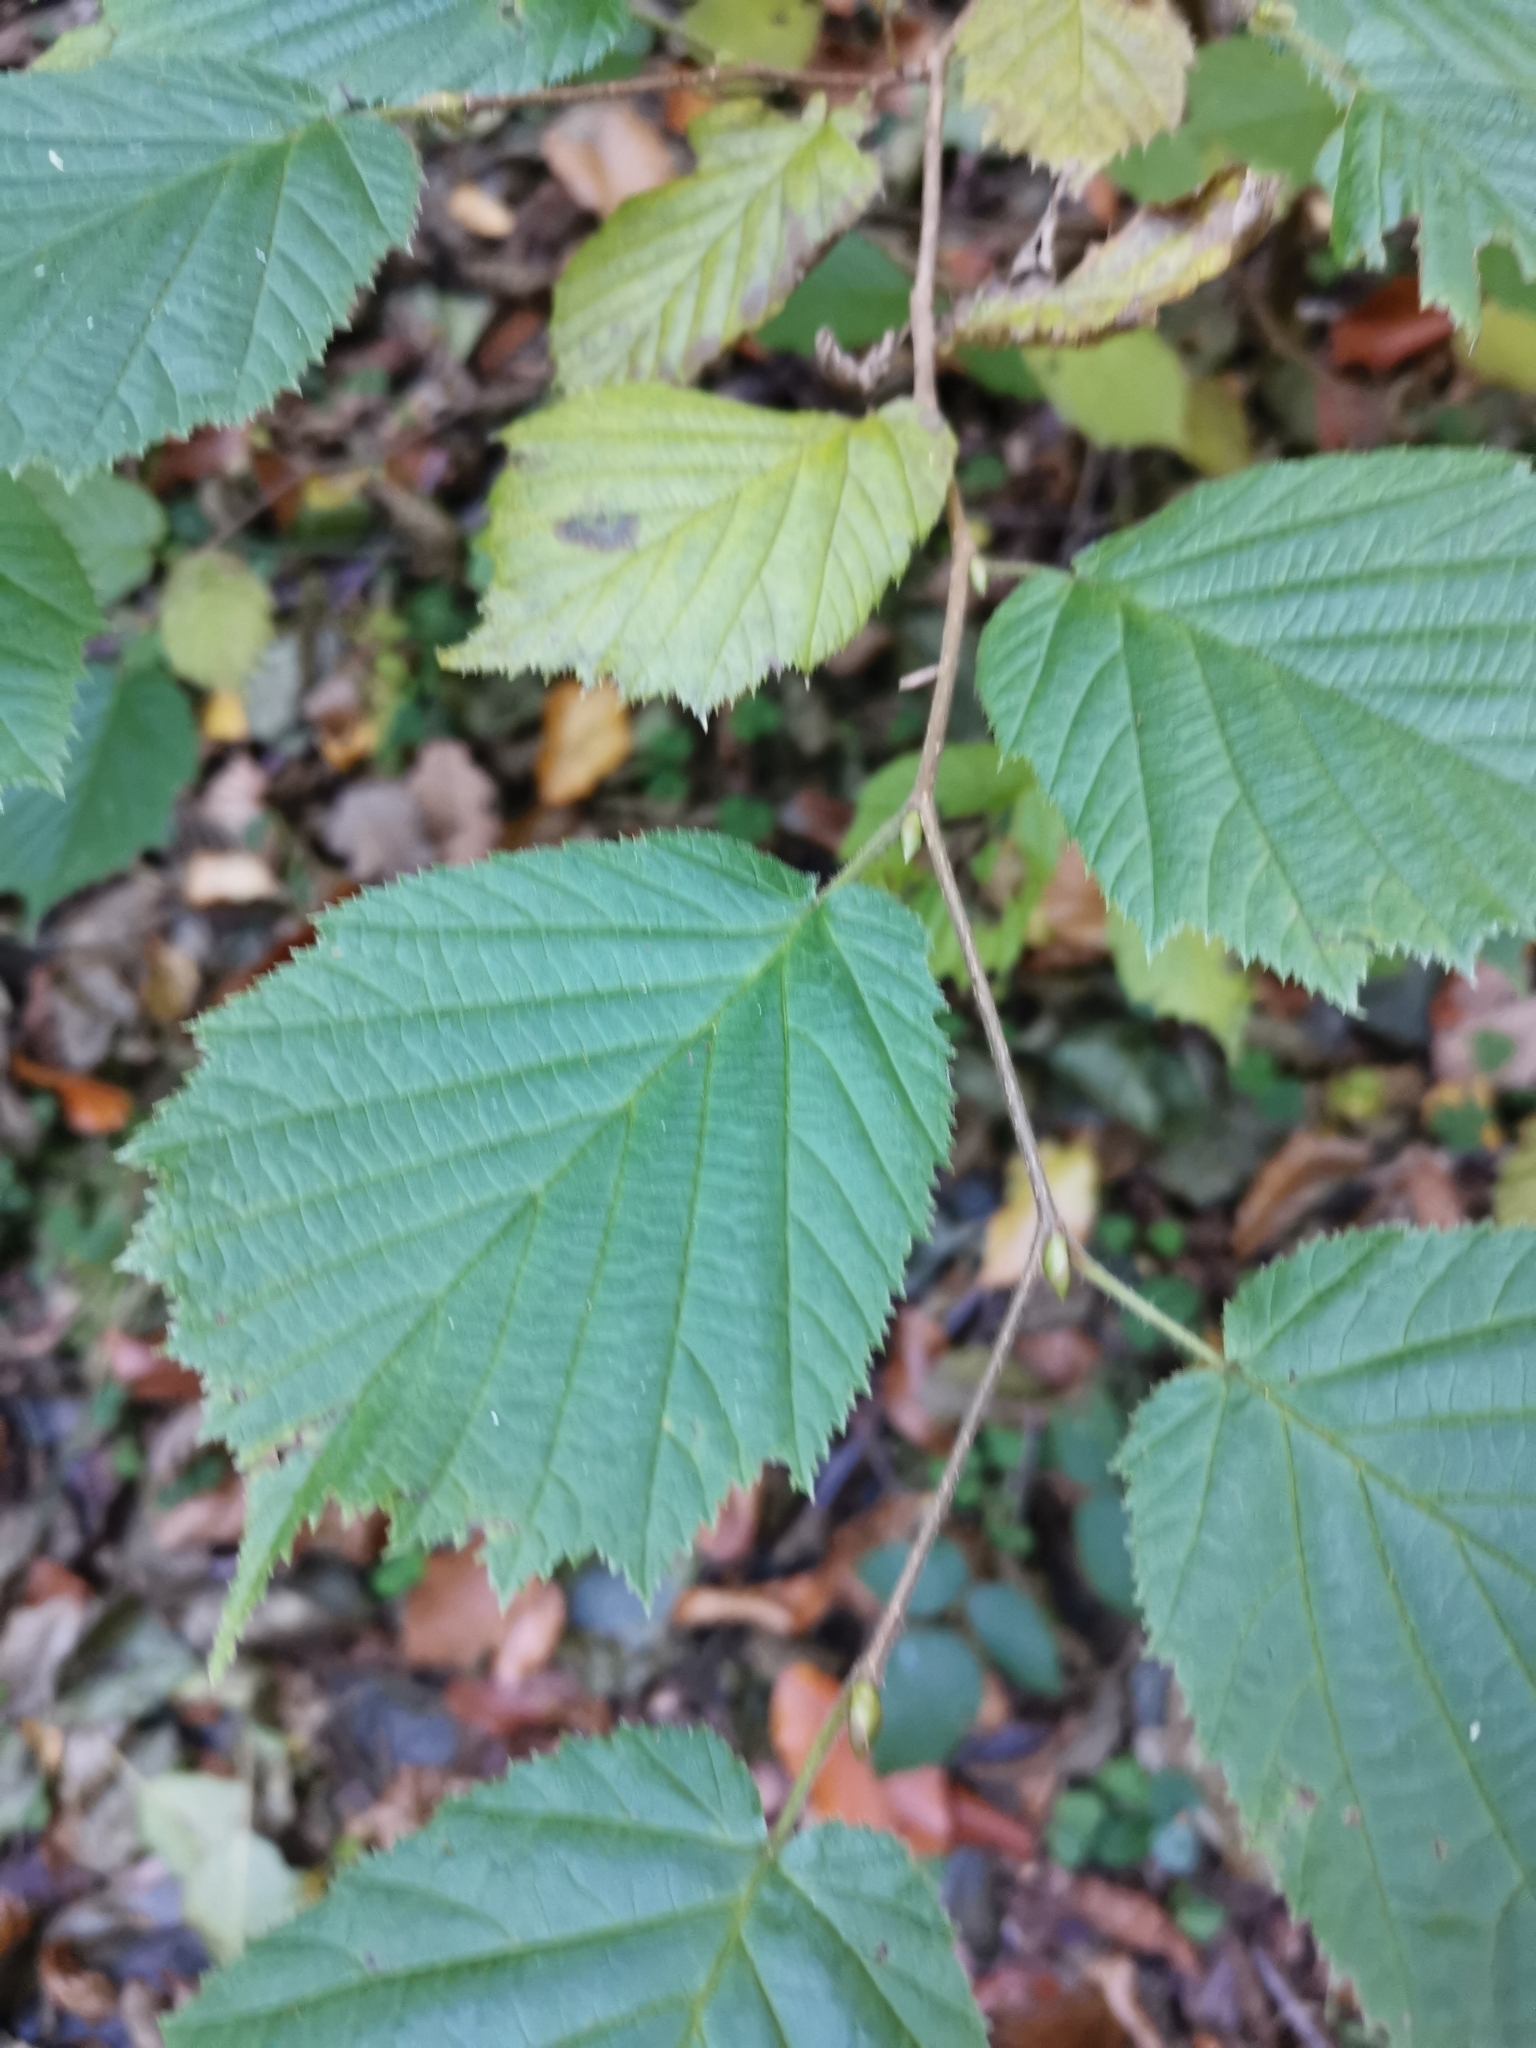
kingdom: Plantae
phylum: Tracheophyta
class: Magnoliopsida
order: Fagales
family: Betulaceae
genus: Corylus
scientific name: Corylus avellana
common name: European hazel
